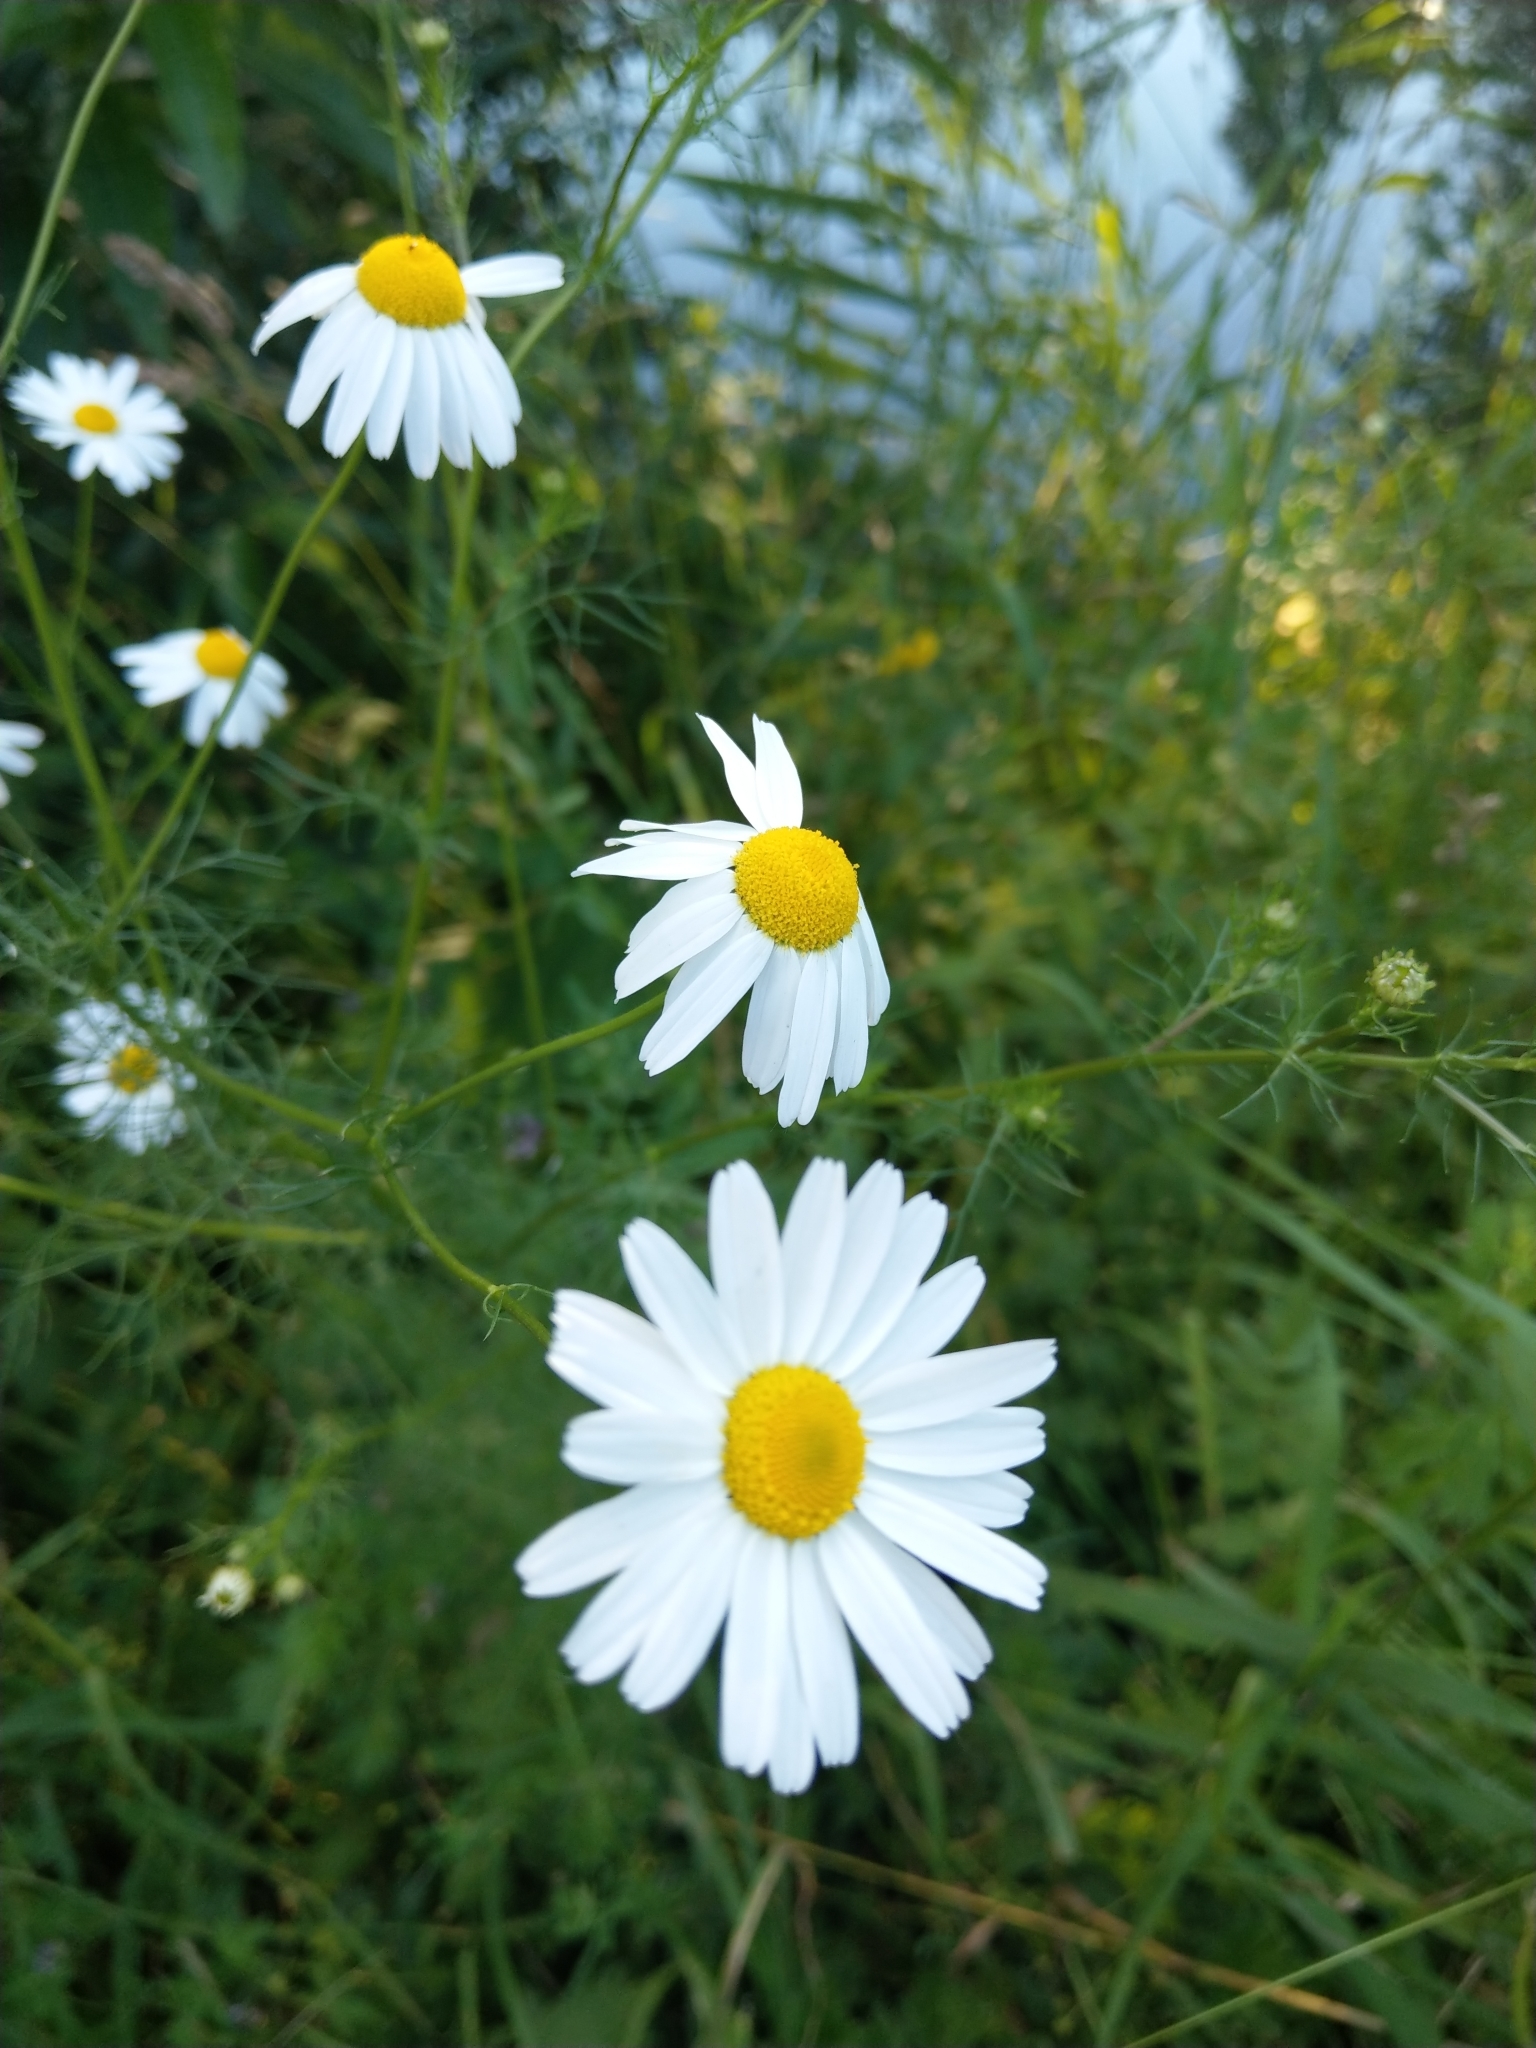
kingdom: Plantae
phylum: Tracheophyta
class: Magnoliopsida
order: Asterales
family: Asteraceae
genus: Tripleurospermum
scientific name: Tripleurospermum inodorum
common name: Scentless mayweed
